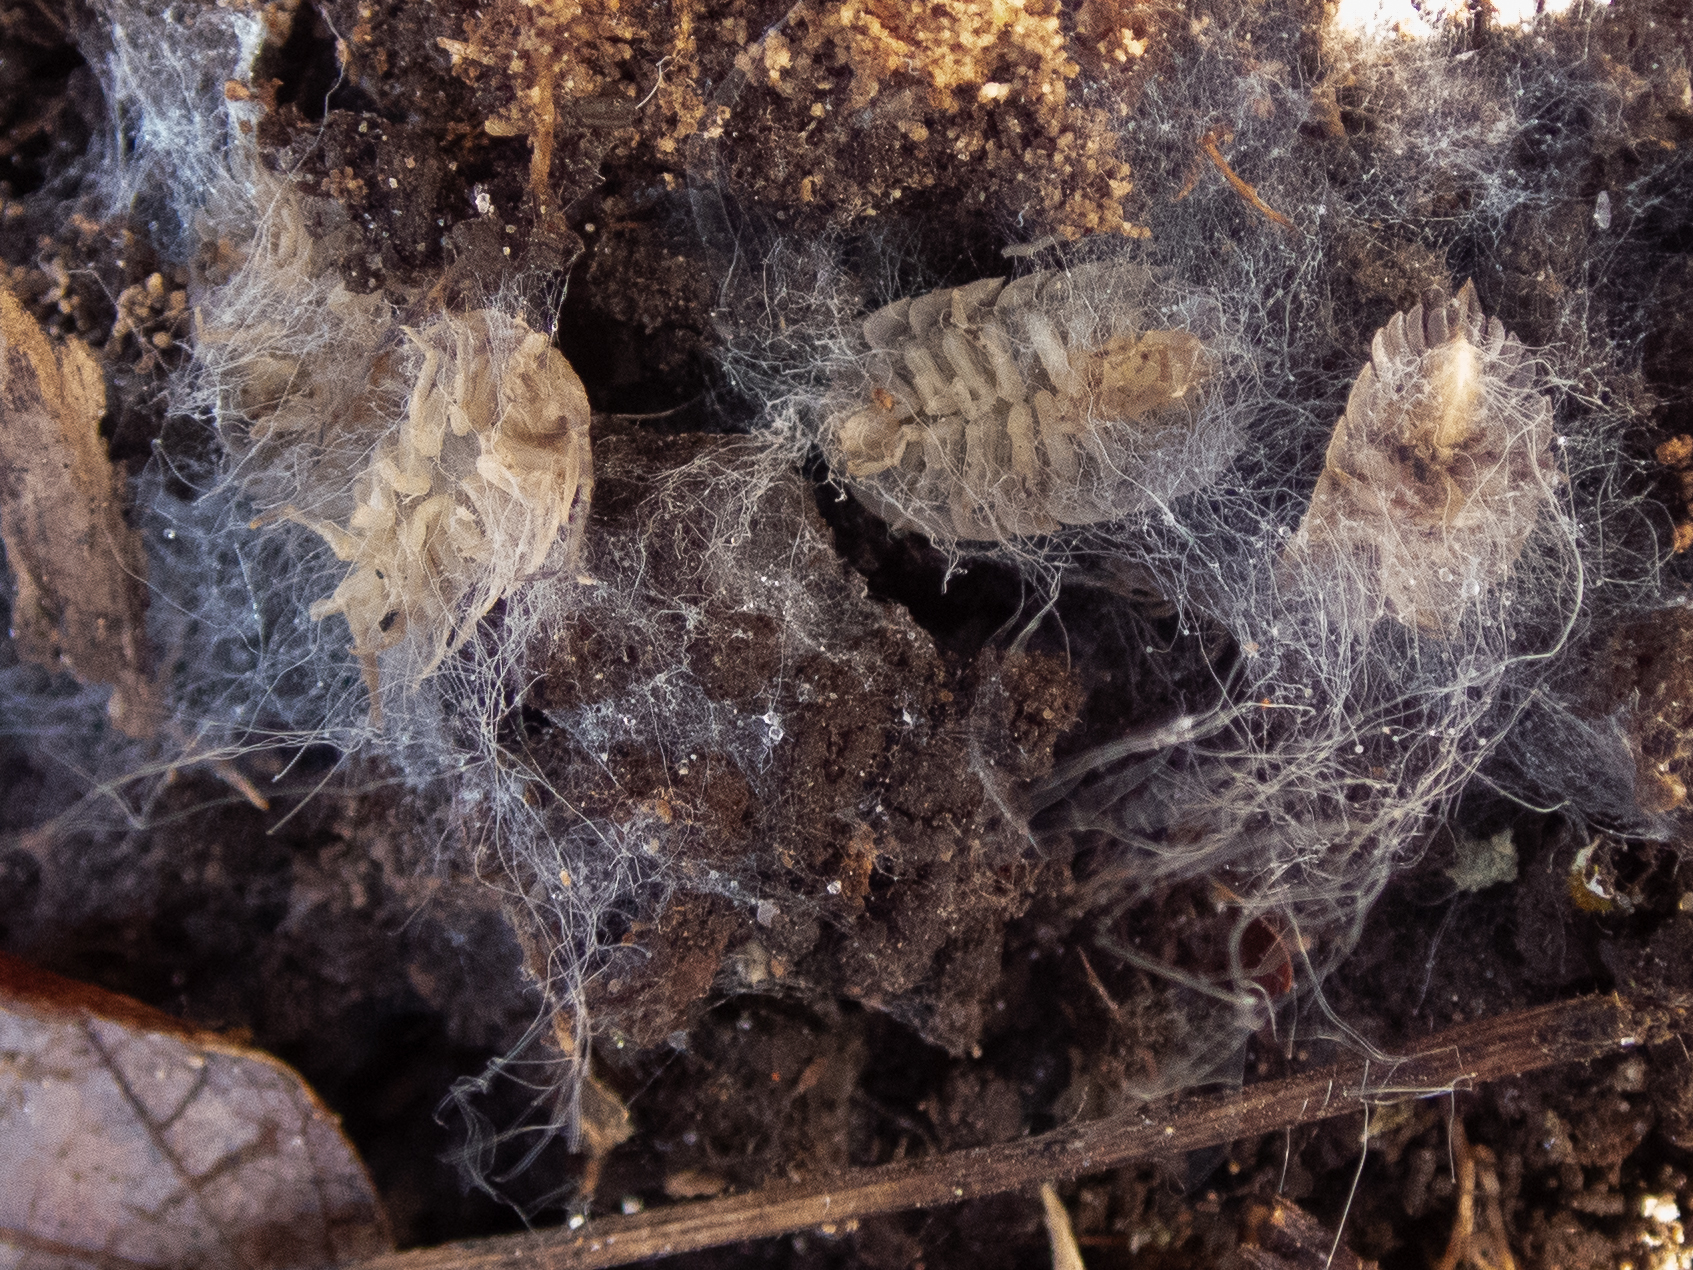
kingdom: Animalia
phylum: Arthropoda
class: Malacostraca
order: Isopoda
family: Oniscidae
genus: Oniscus
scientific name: Oniscus asellus
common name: Common shiny woodlouse
